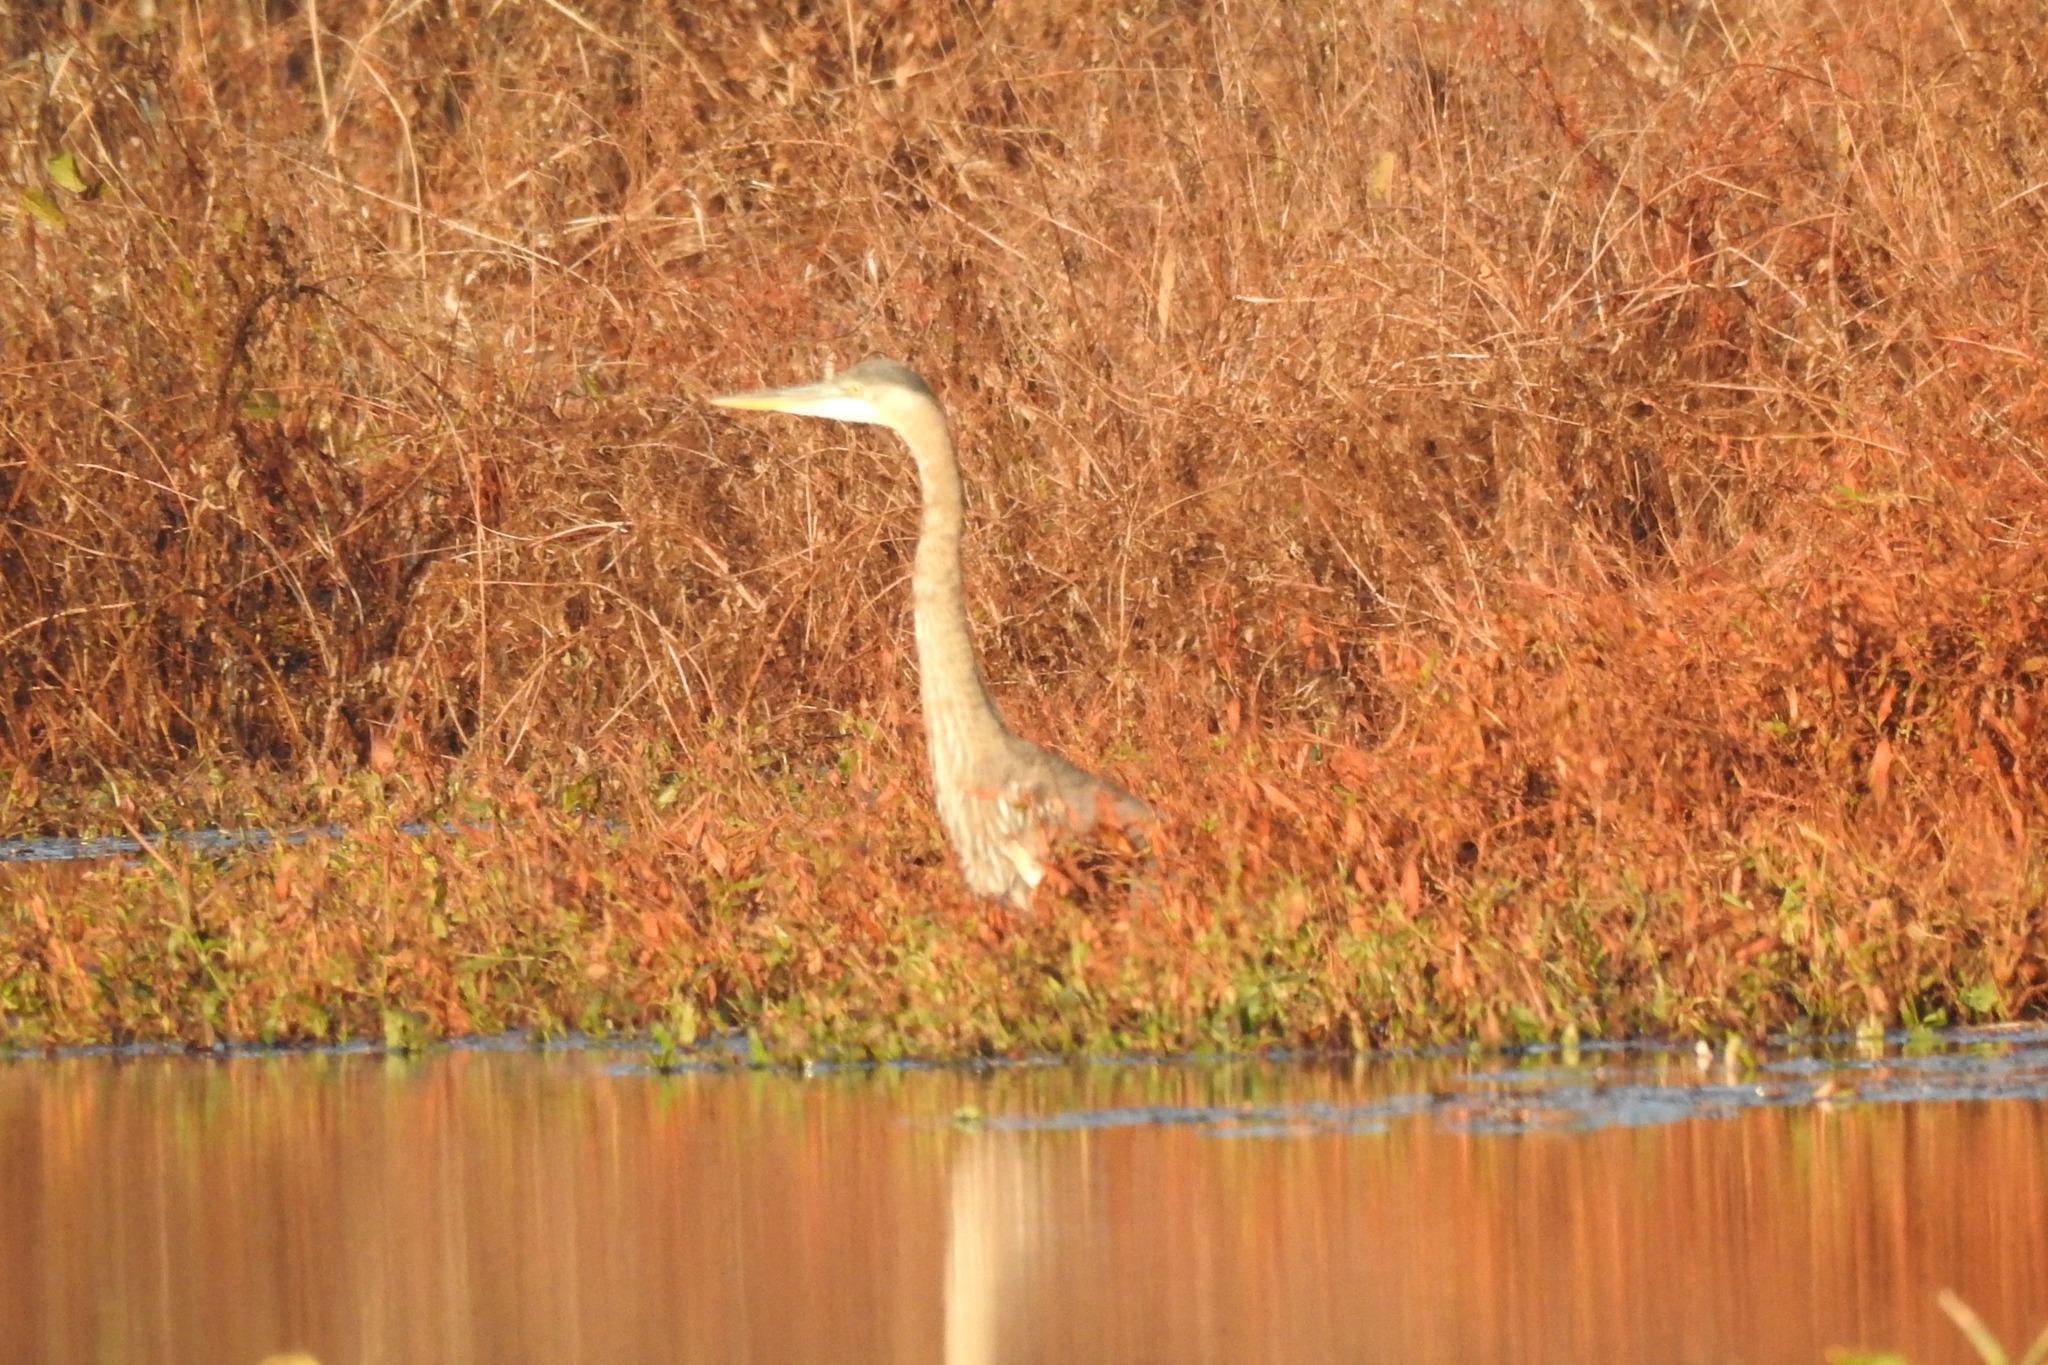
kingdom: Animalia
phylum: Chordata
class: Aves
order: Pelecaniformes
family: Ardeidae
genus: Ardea
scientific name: Ardea herodias
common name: Great blue heron
